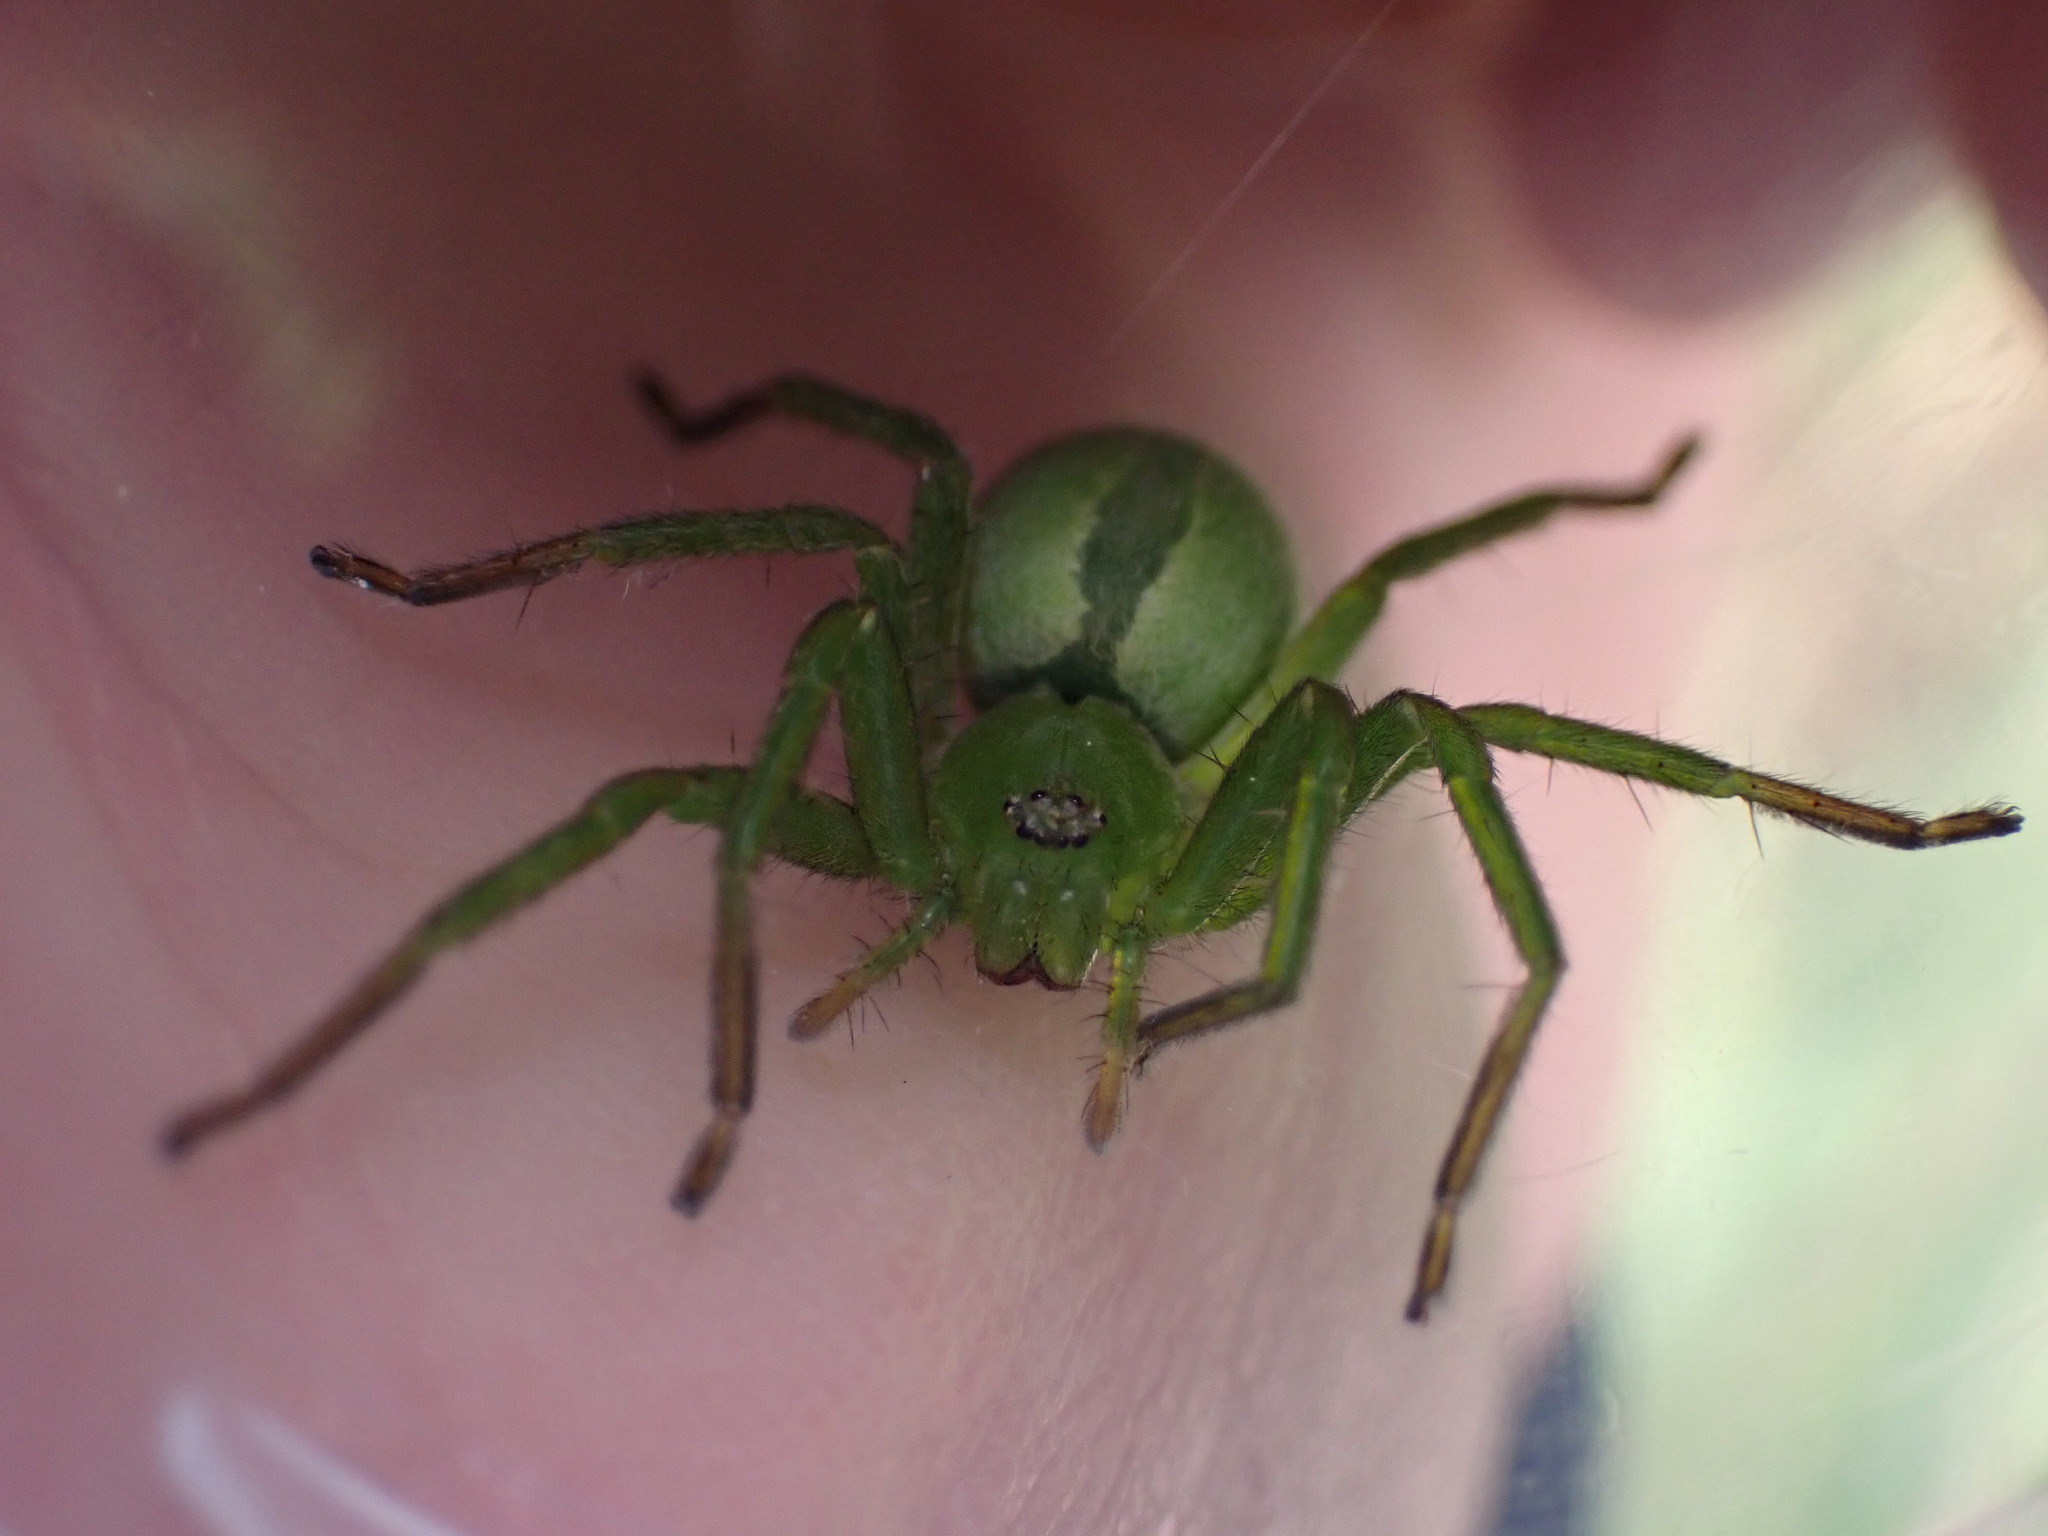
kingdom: Animalia
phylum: Arthropoda
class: Arachnida
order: Araneae
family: Sparassidae
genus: Micrommata
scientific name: Micrommata ligurina
